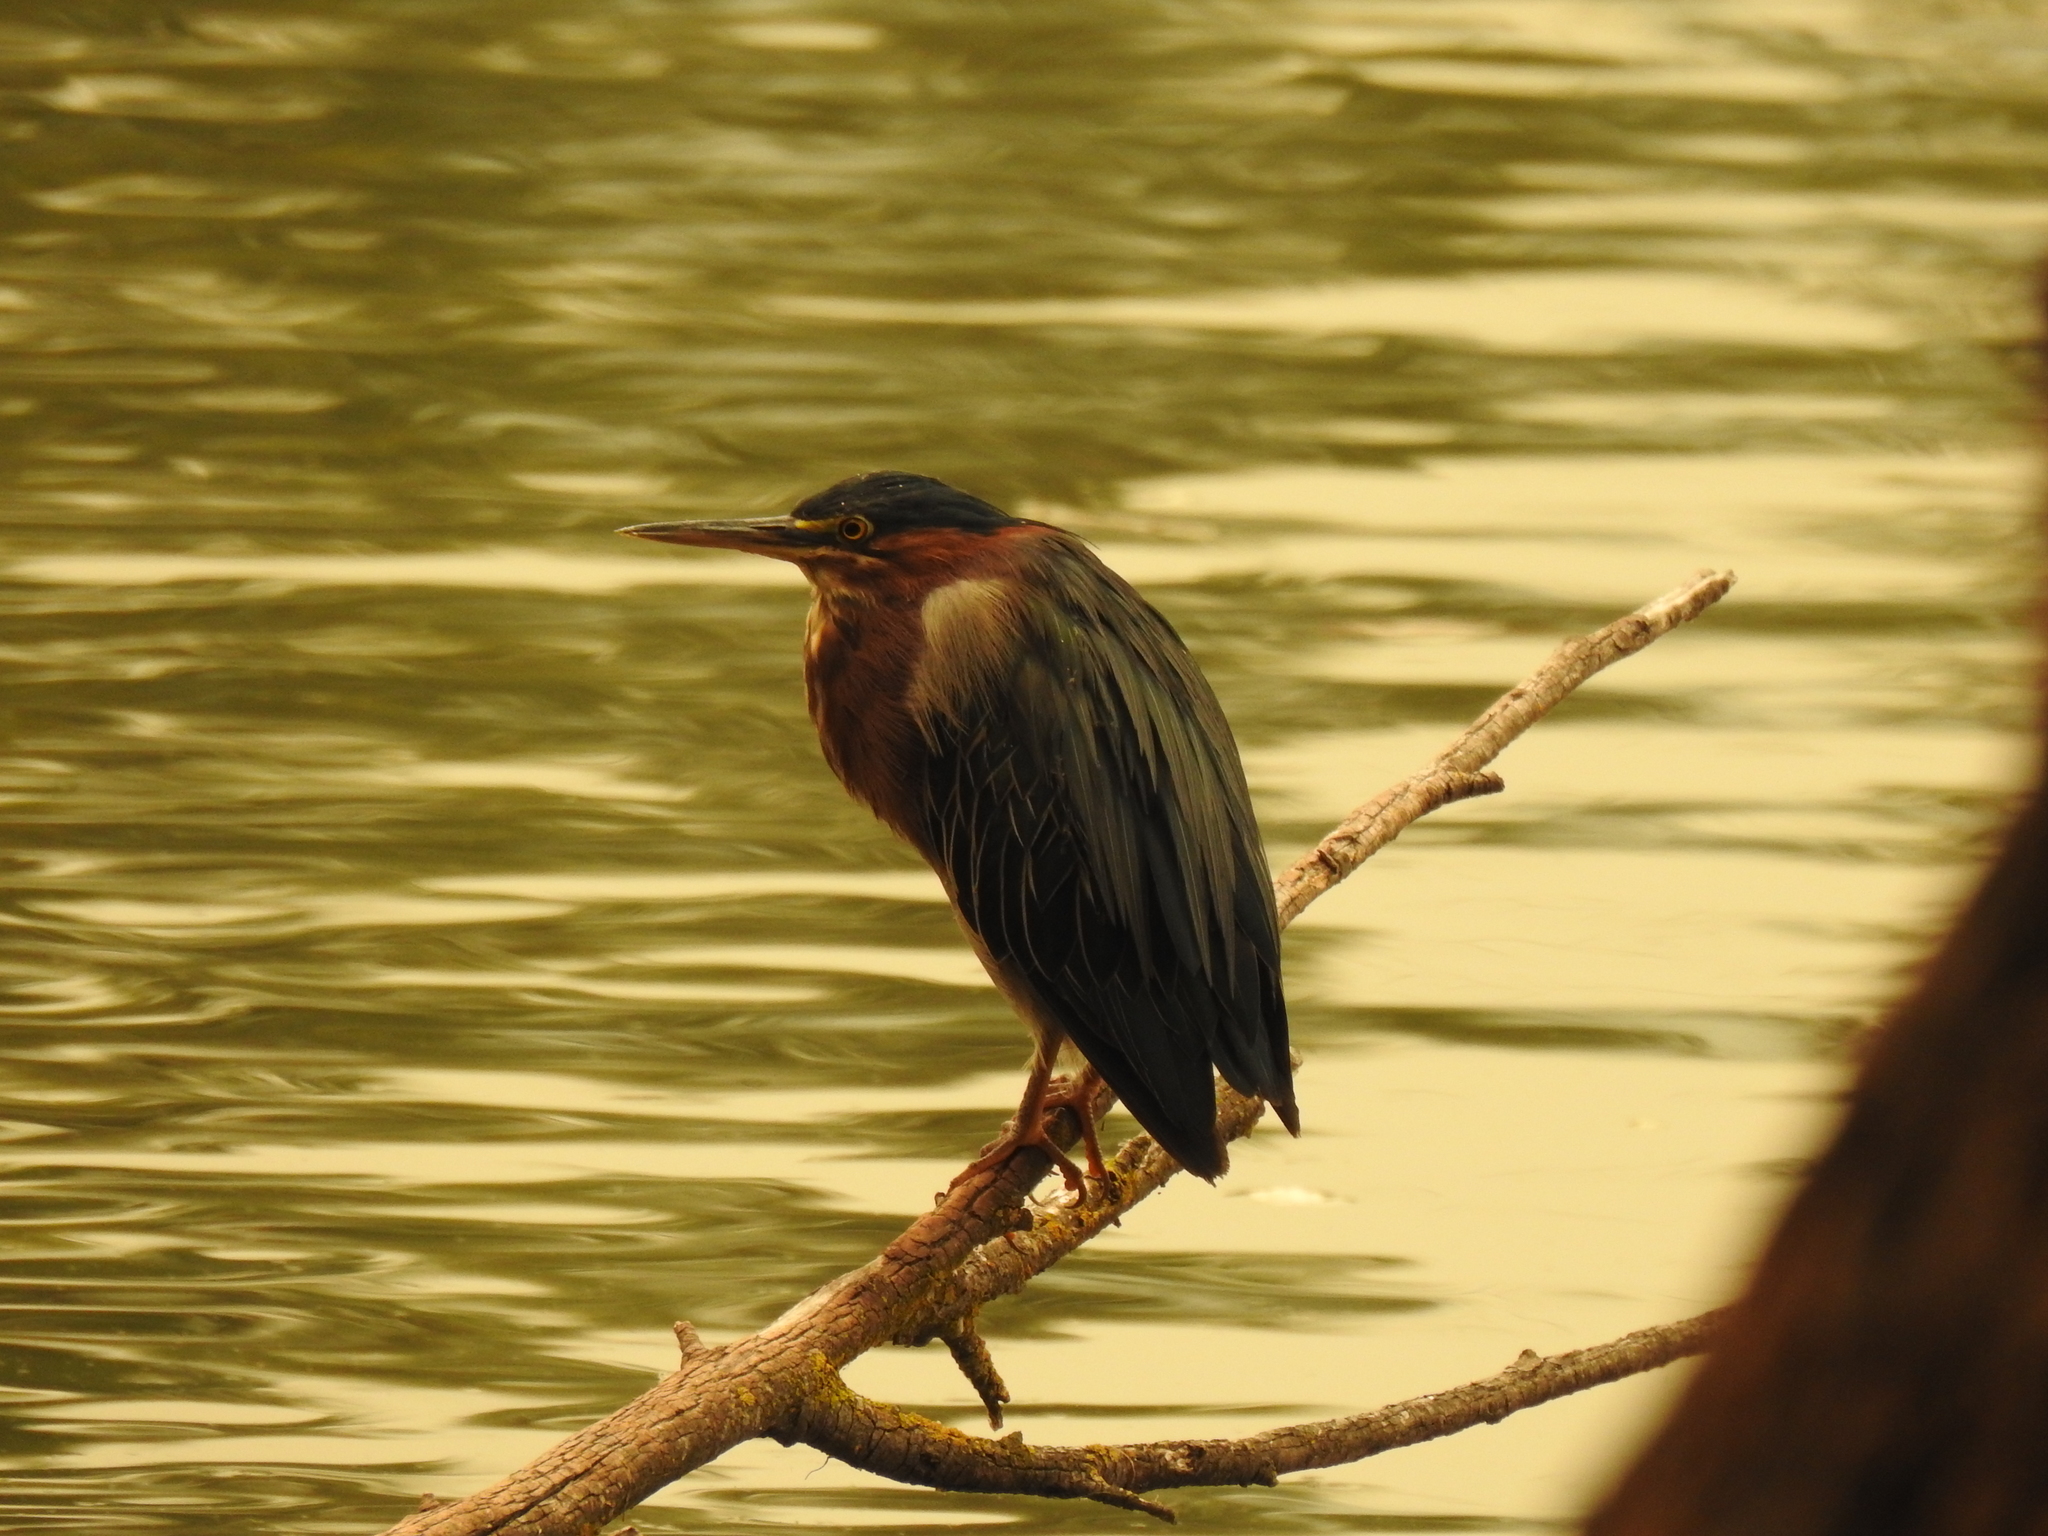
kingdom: Animalia
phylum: Chordata
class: Aves
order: Pelecaniformes
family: Ardeidae
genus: Butorides
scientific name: Butorides virescens
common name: Green heron
